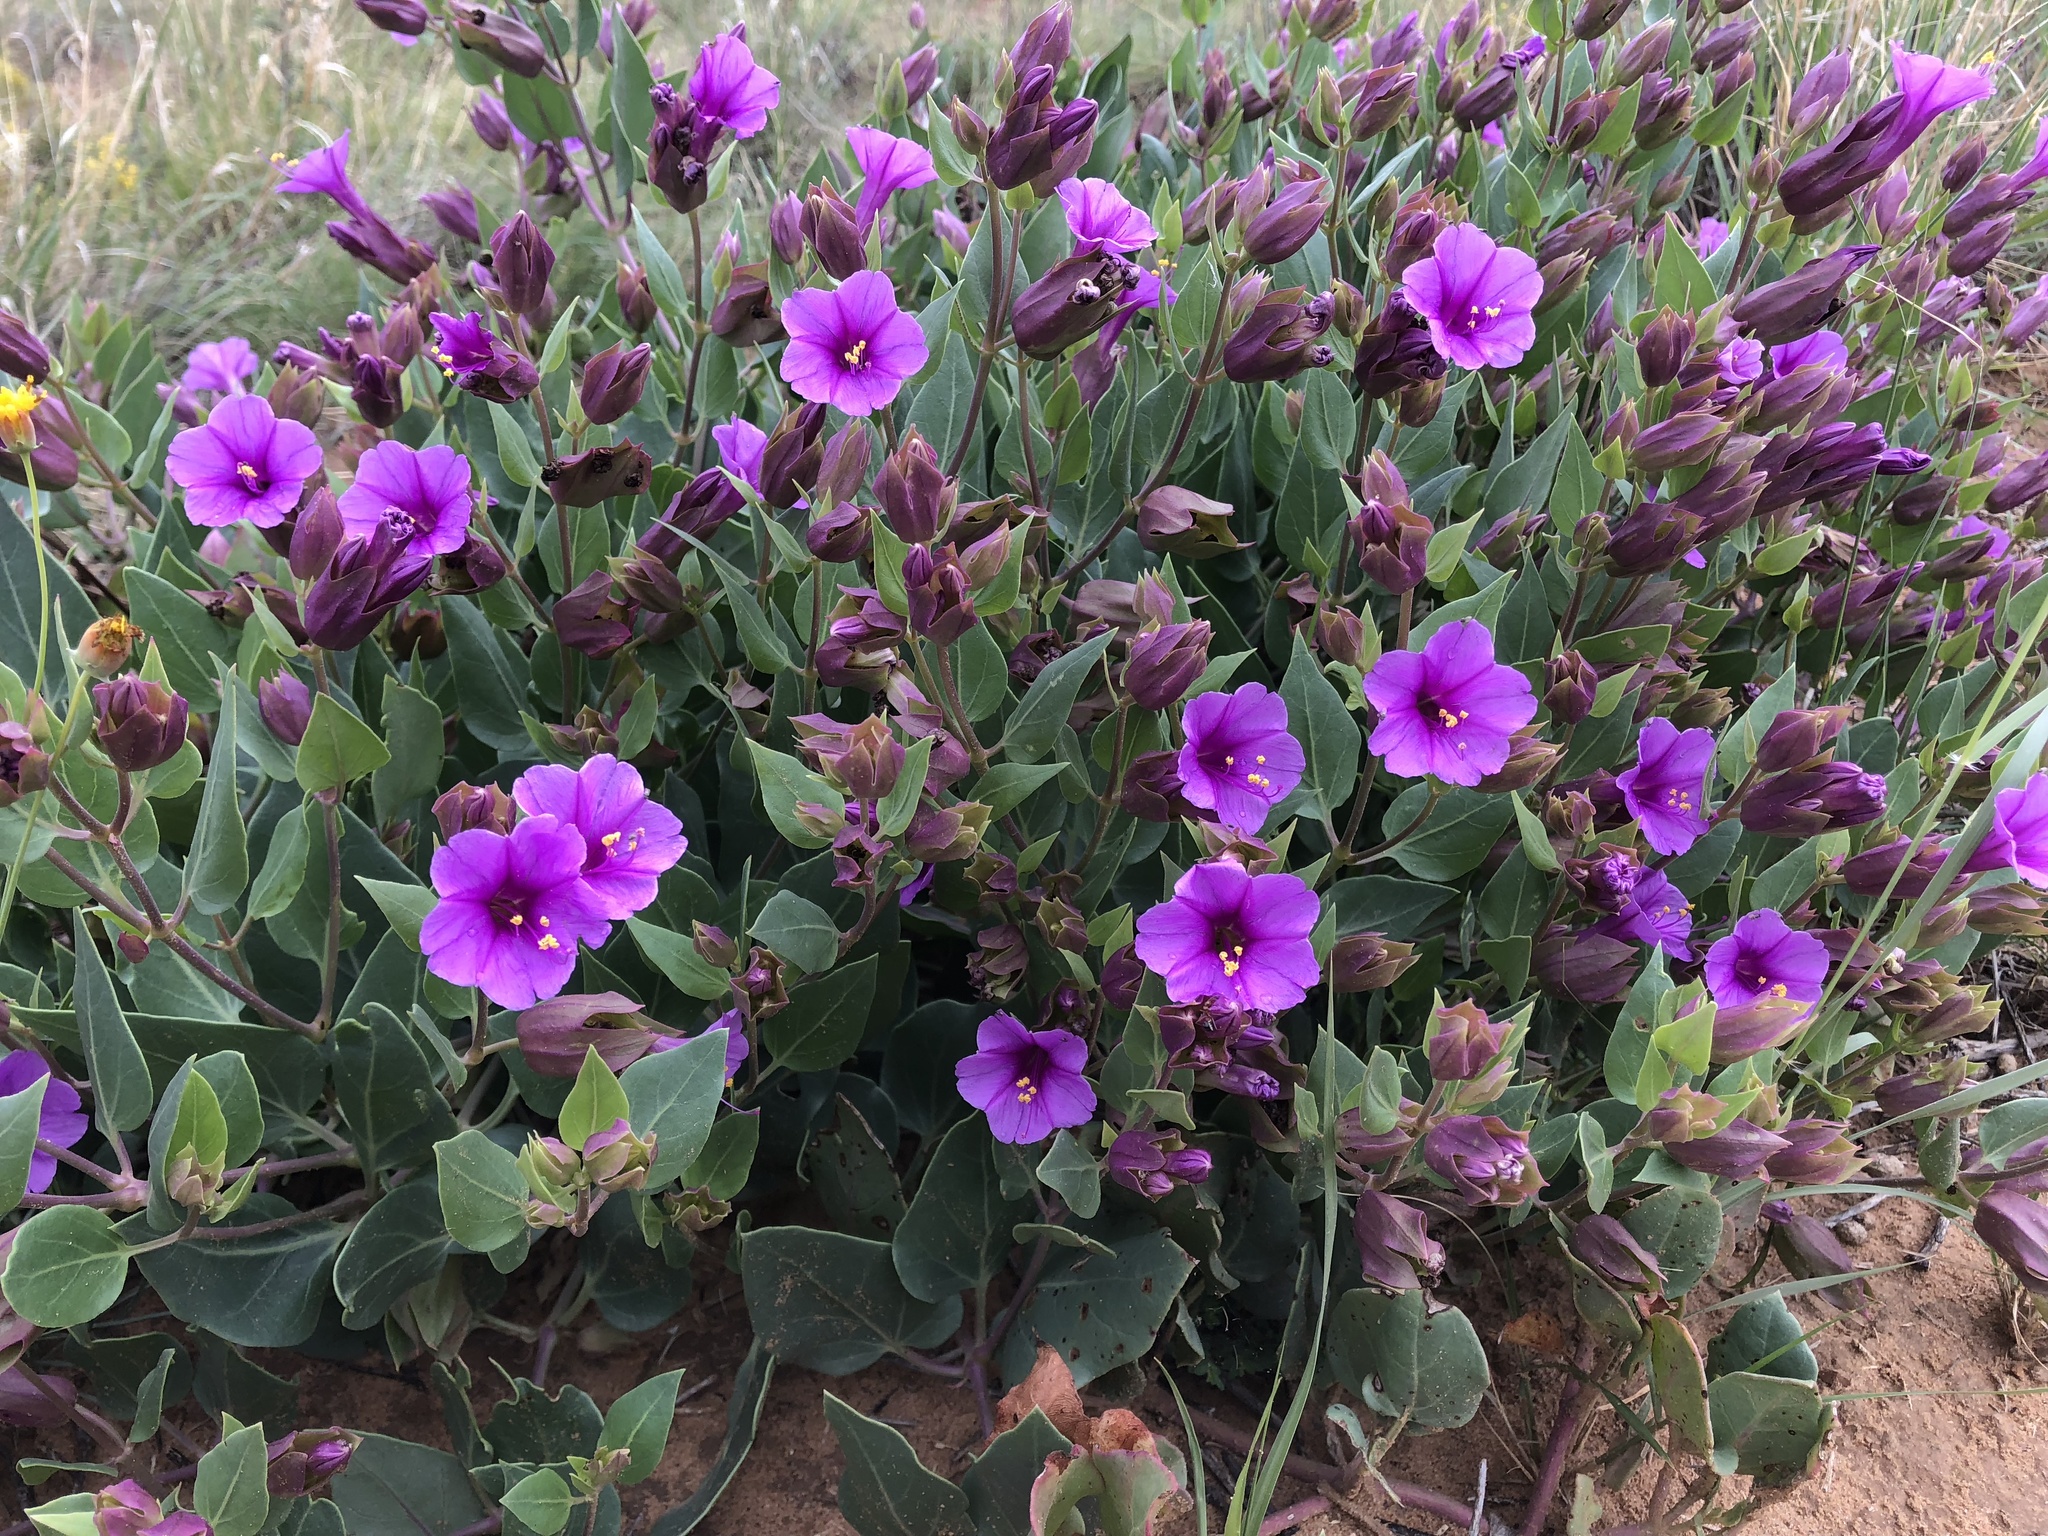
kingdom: Plantae
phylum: Tracheophyta
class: Magnoliopsida
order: Caryophyllales
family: Nyctaginaceae
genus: Mirabilis
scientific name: Mirabilis multiflora
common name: Froebel's four-o'clock
